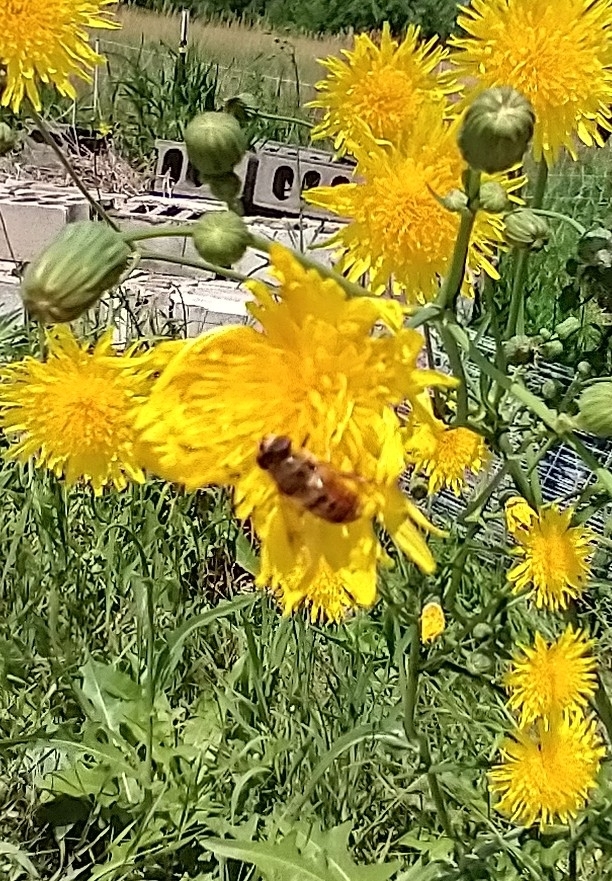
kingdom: Animalia
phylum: Arthropoda
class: Insecta
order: Diptera
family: Syrphidae
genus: Eristalis
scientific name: Eristalis tenax
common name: Drone fly
